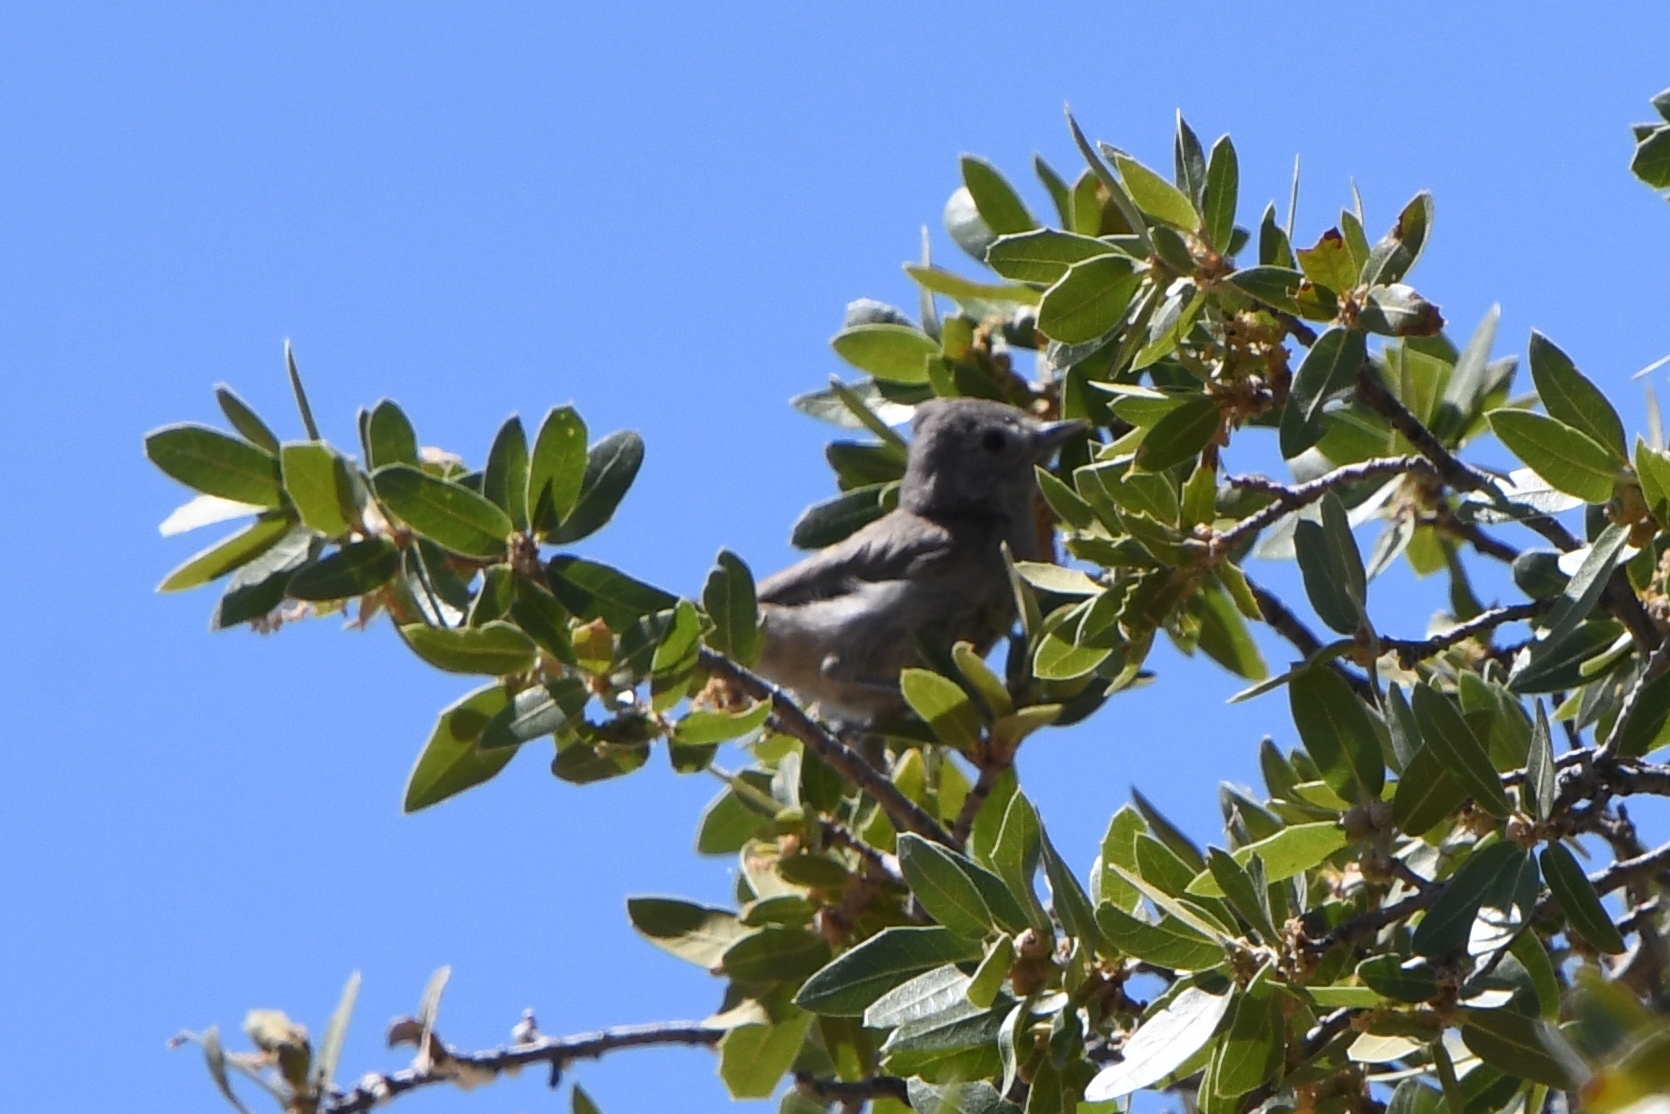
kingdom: Animalia
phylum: Chordata
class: Aves
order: Passeriformes
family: Paridae
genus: Baeolophus
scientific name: Baeolophus ridgwayi
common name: Juniper titmouse
